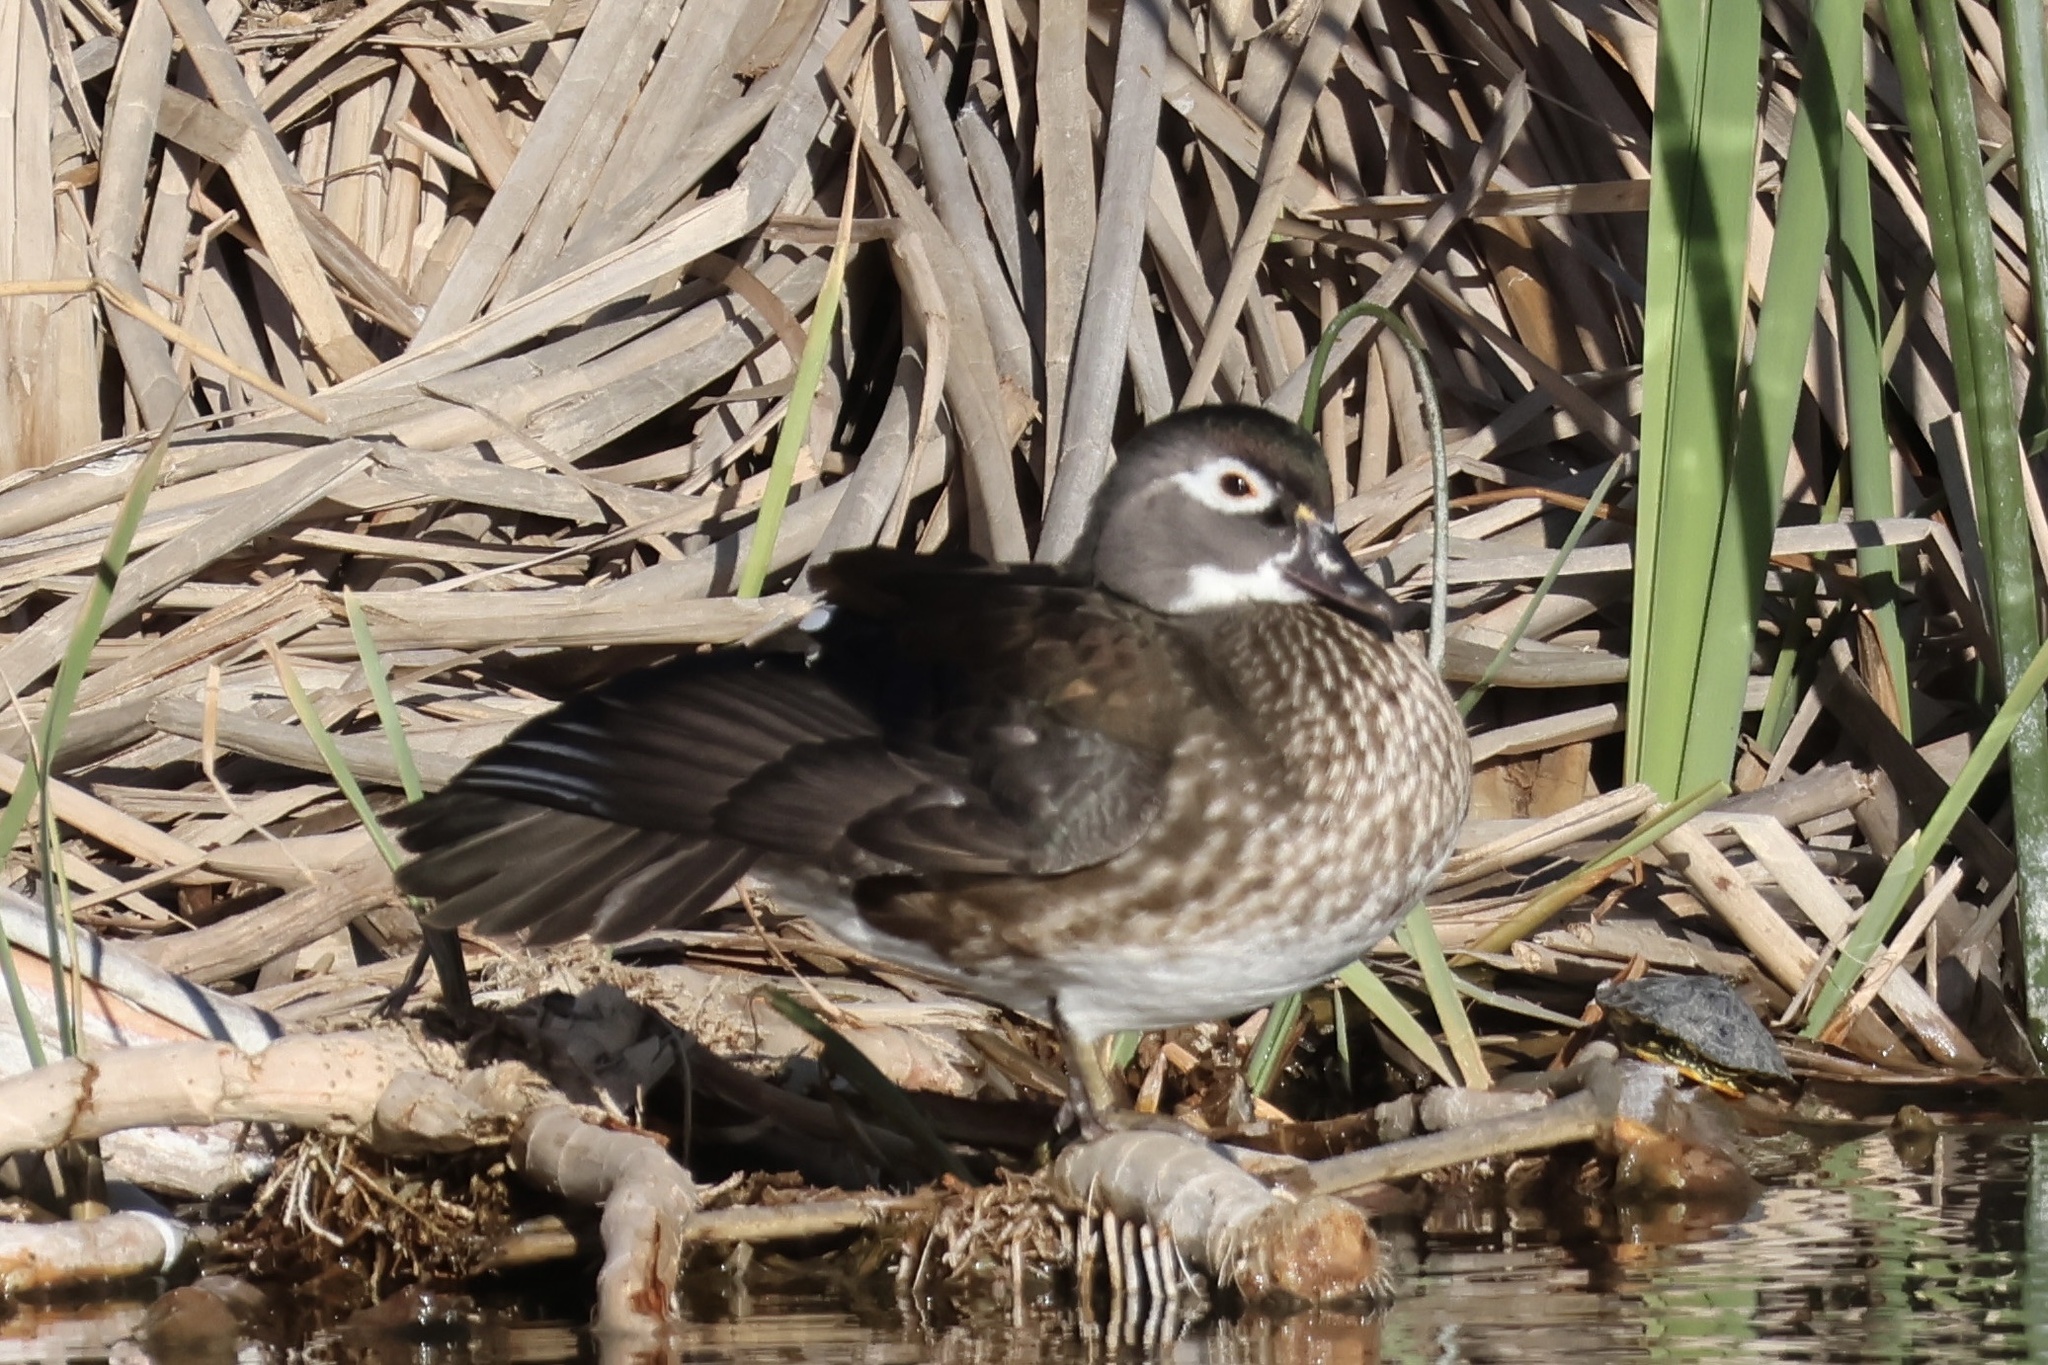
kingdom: Animalia
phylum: Chordata
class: Aves
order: Anseriformes
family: Anatidae
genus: Aix
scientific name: Aix sponsa
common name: Wood duck
